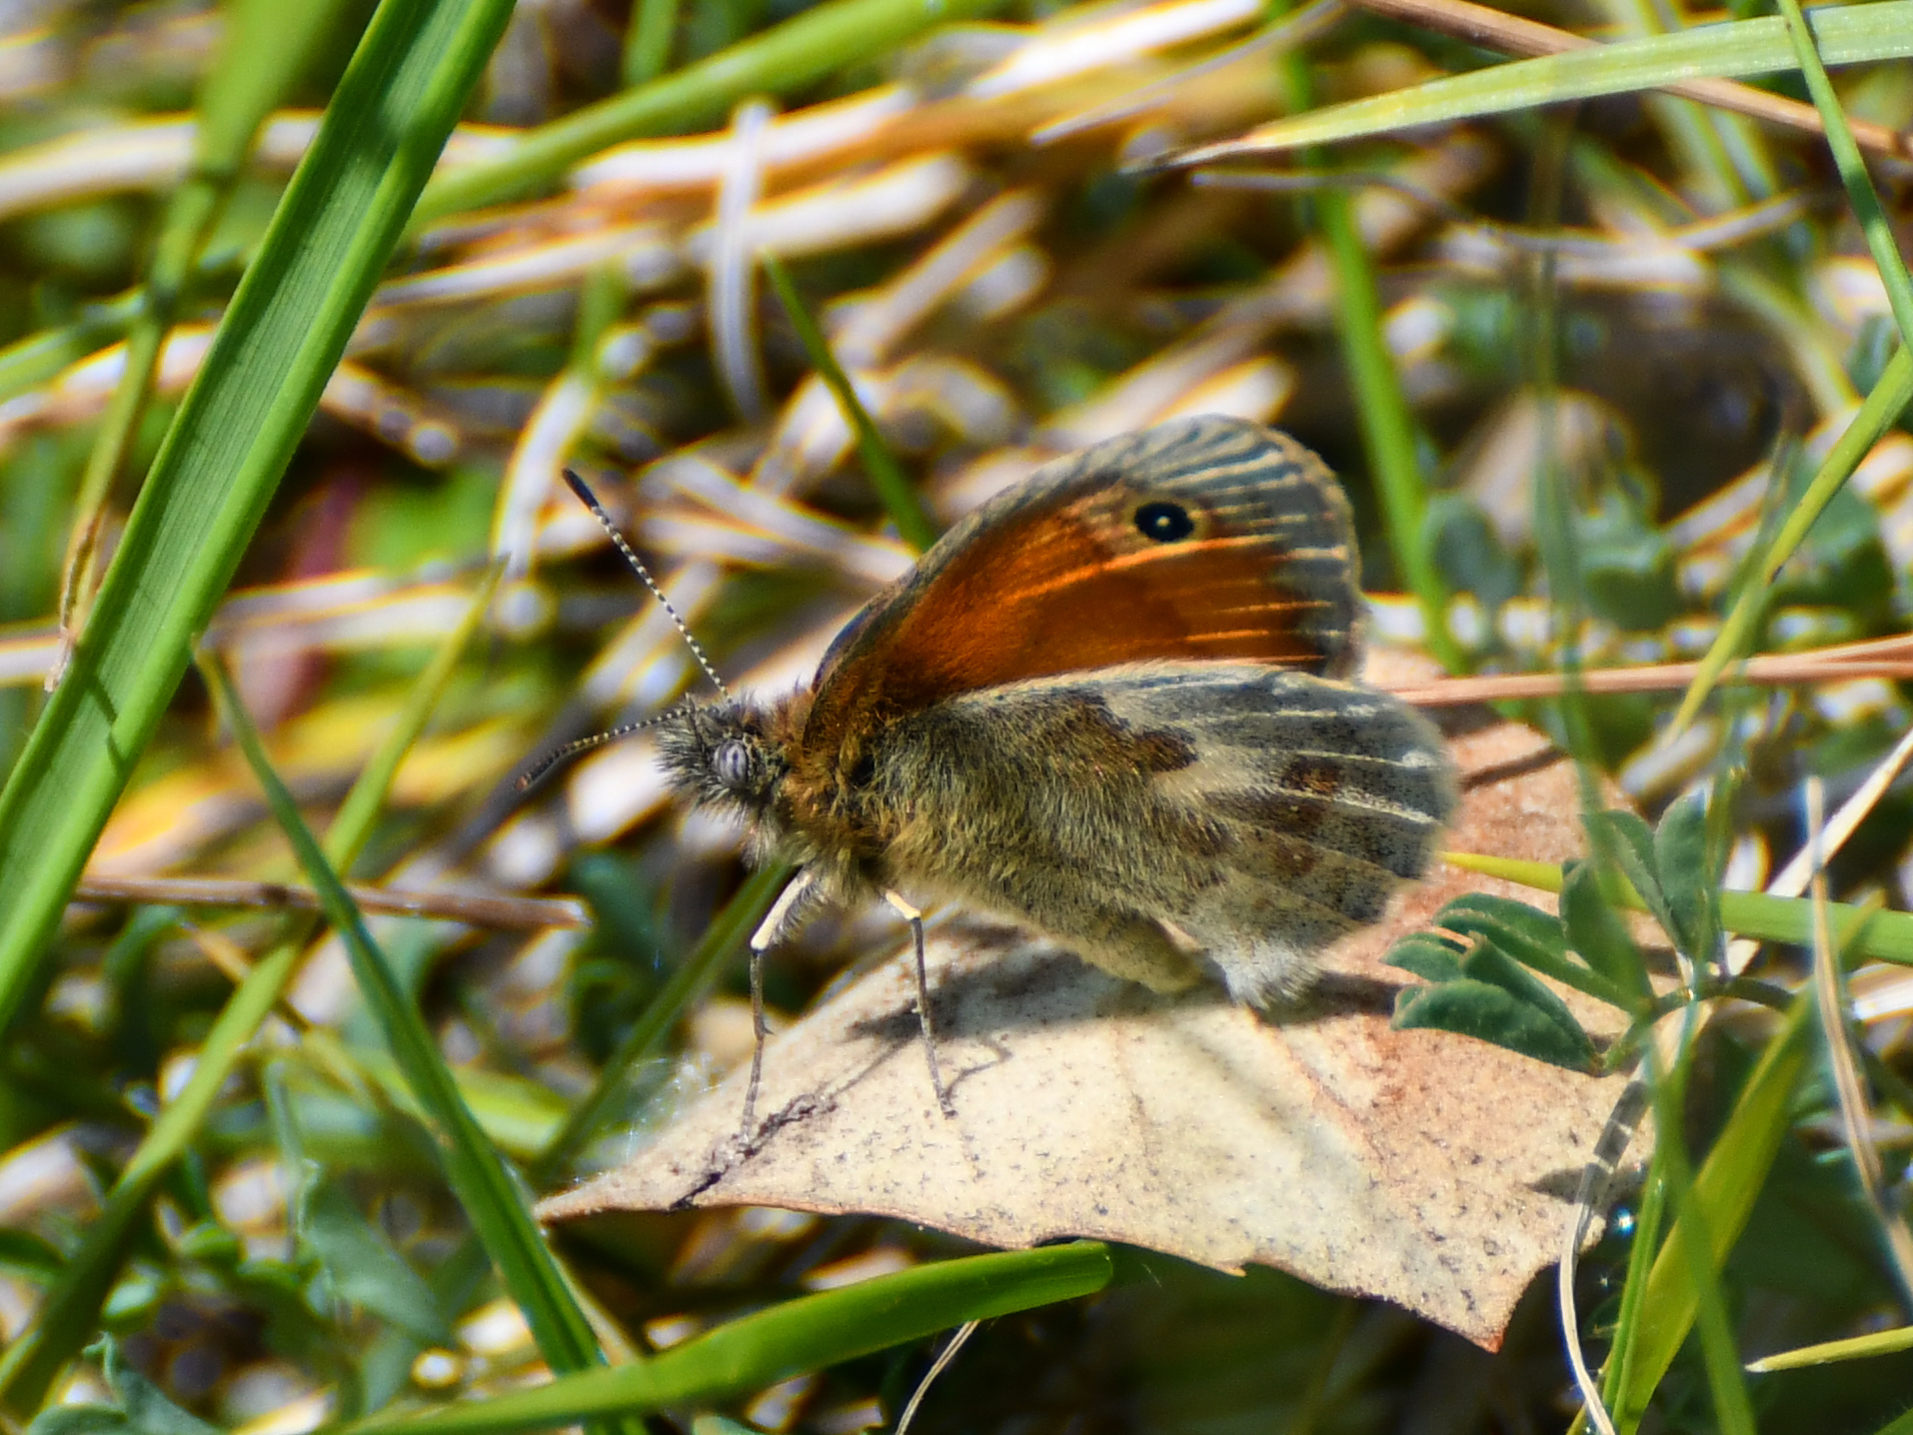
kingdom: Animalia
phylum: Arthropoda
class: Insecta
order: Lepidoptera
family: Nymphalidae
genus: Coenonympha
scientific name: Coenonympha pamphilus
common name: Small heath
